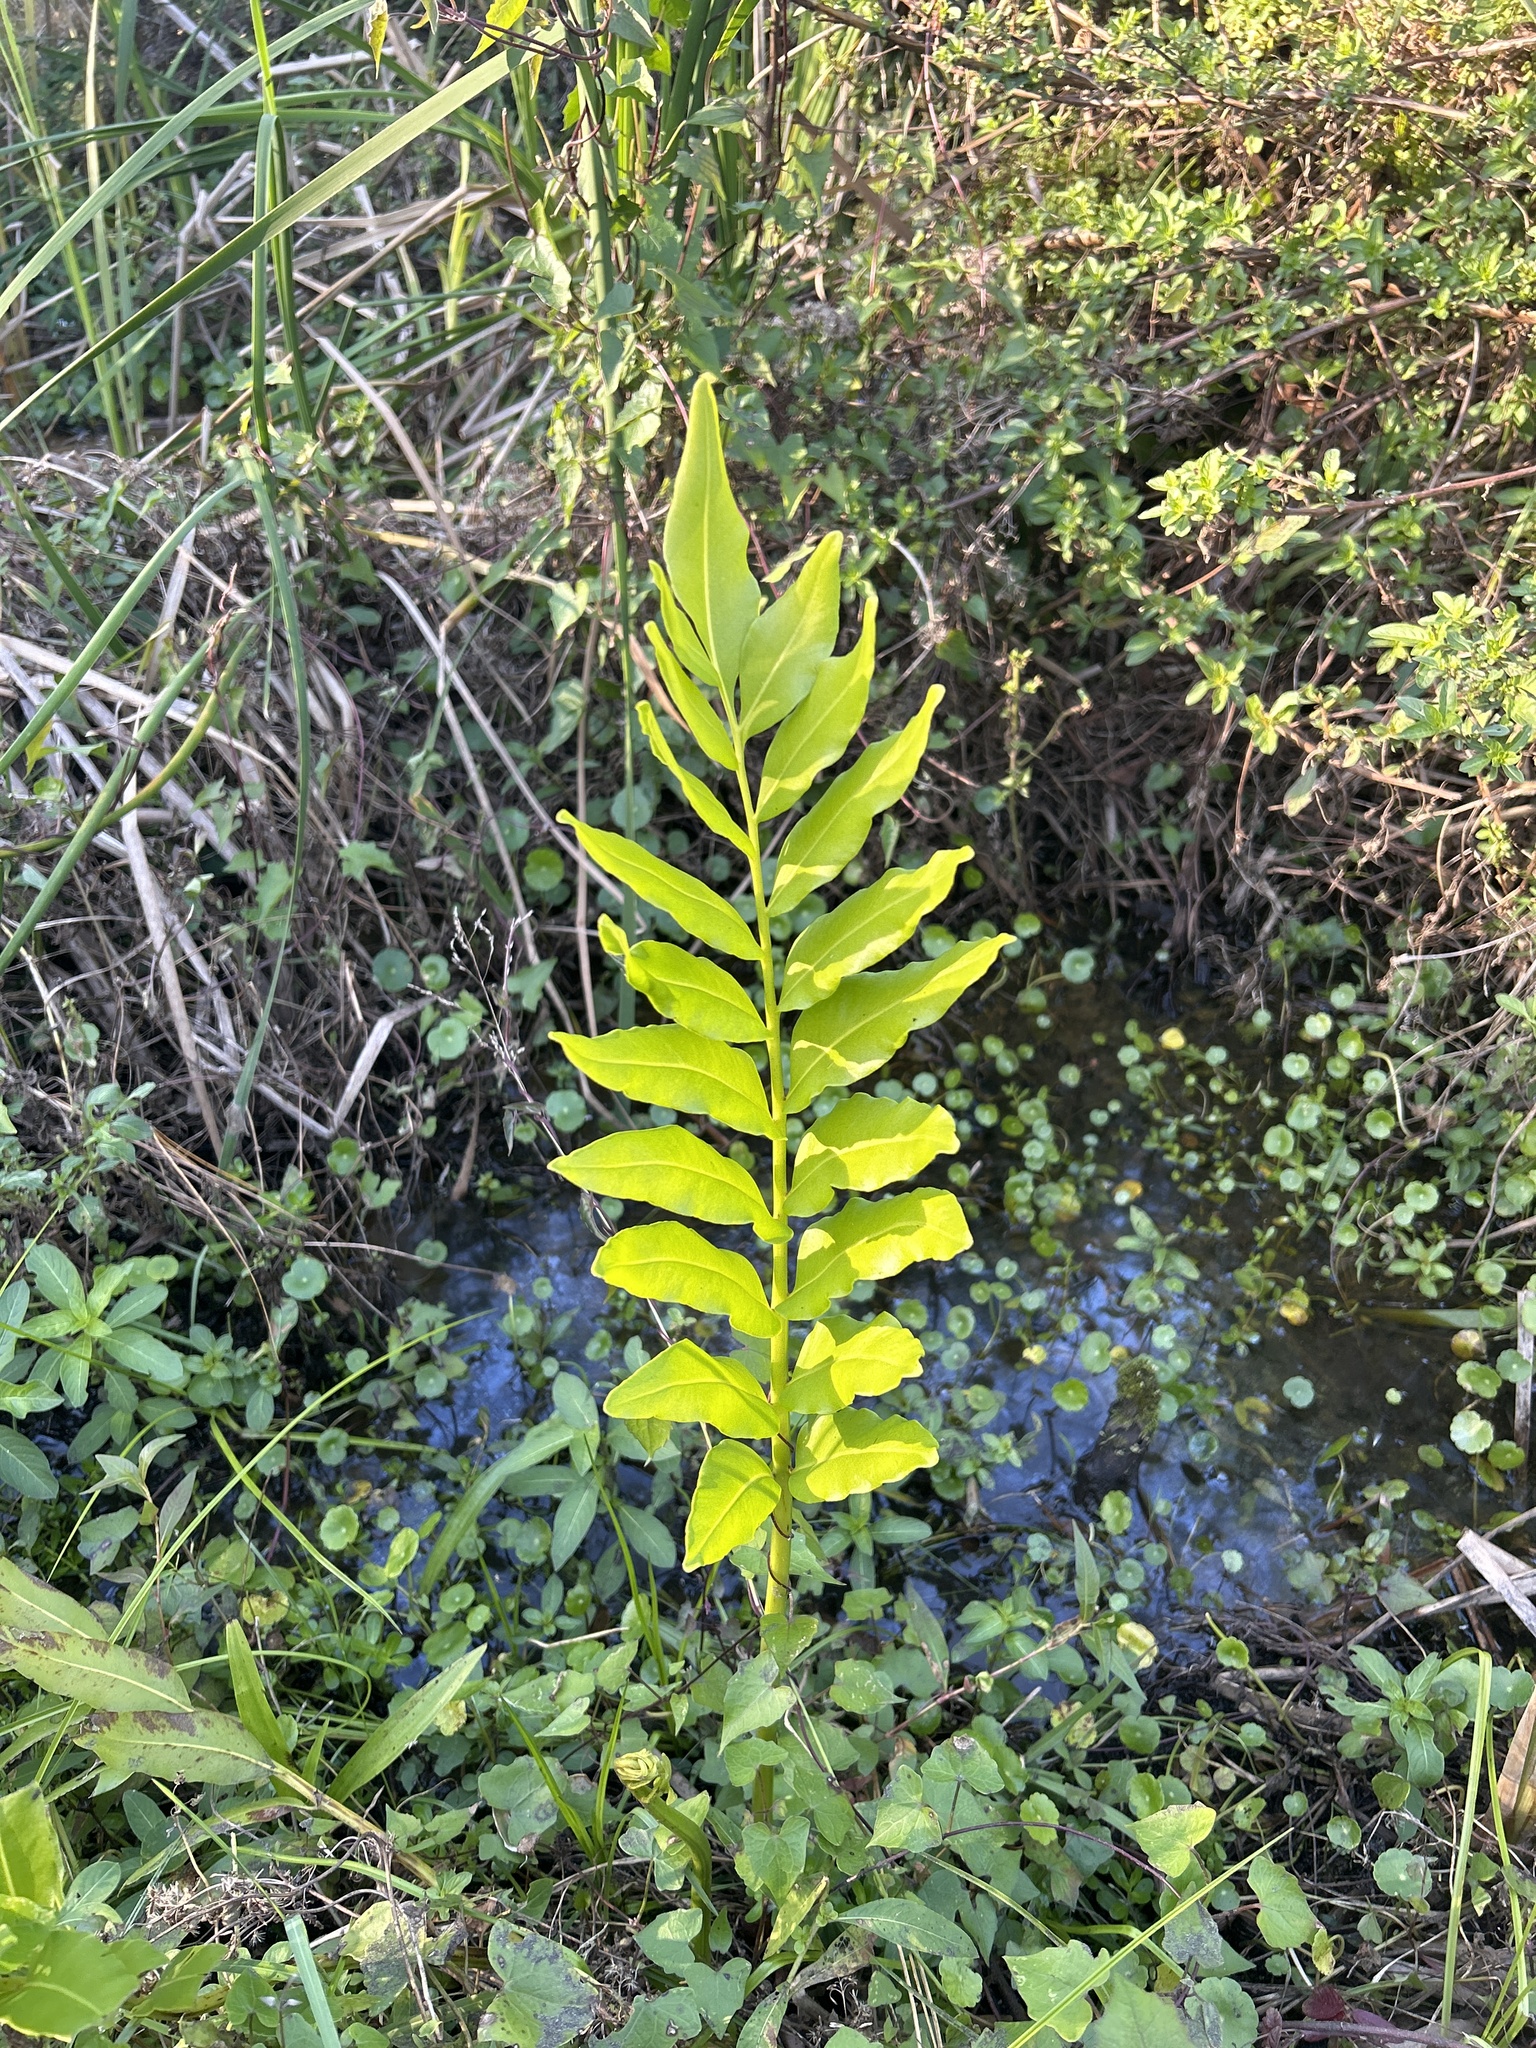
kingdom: Plantae
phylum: Tracheophyta
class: Polypodiopsida
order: Polypodiales
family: Pteridaceae
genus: Acrostichum
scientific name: Acrostichum danaeifolium
